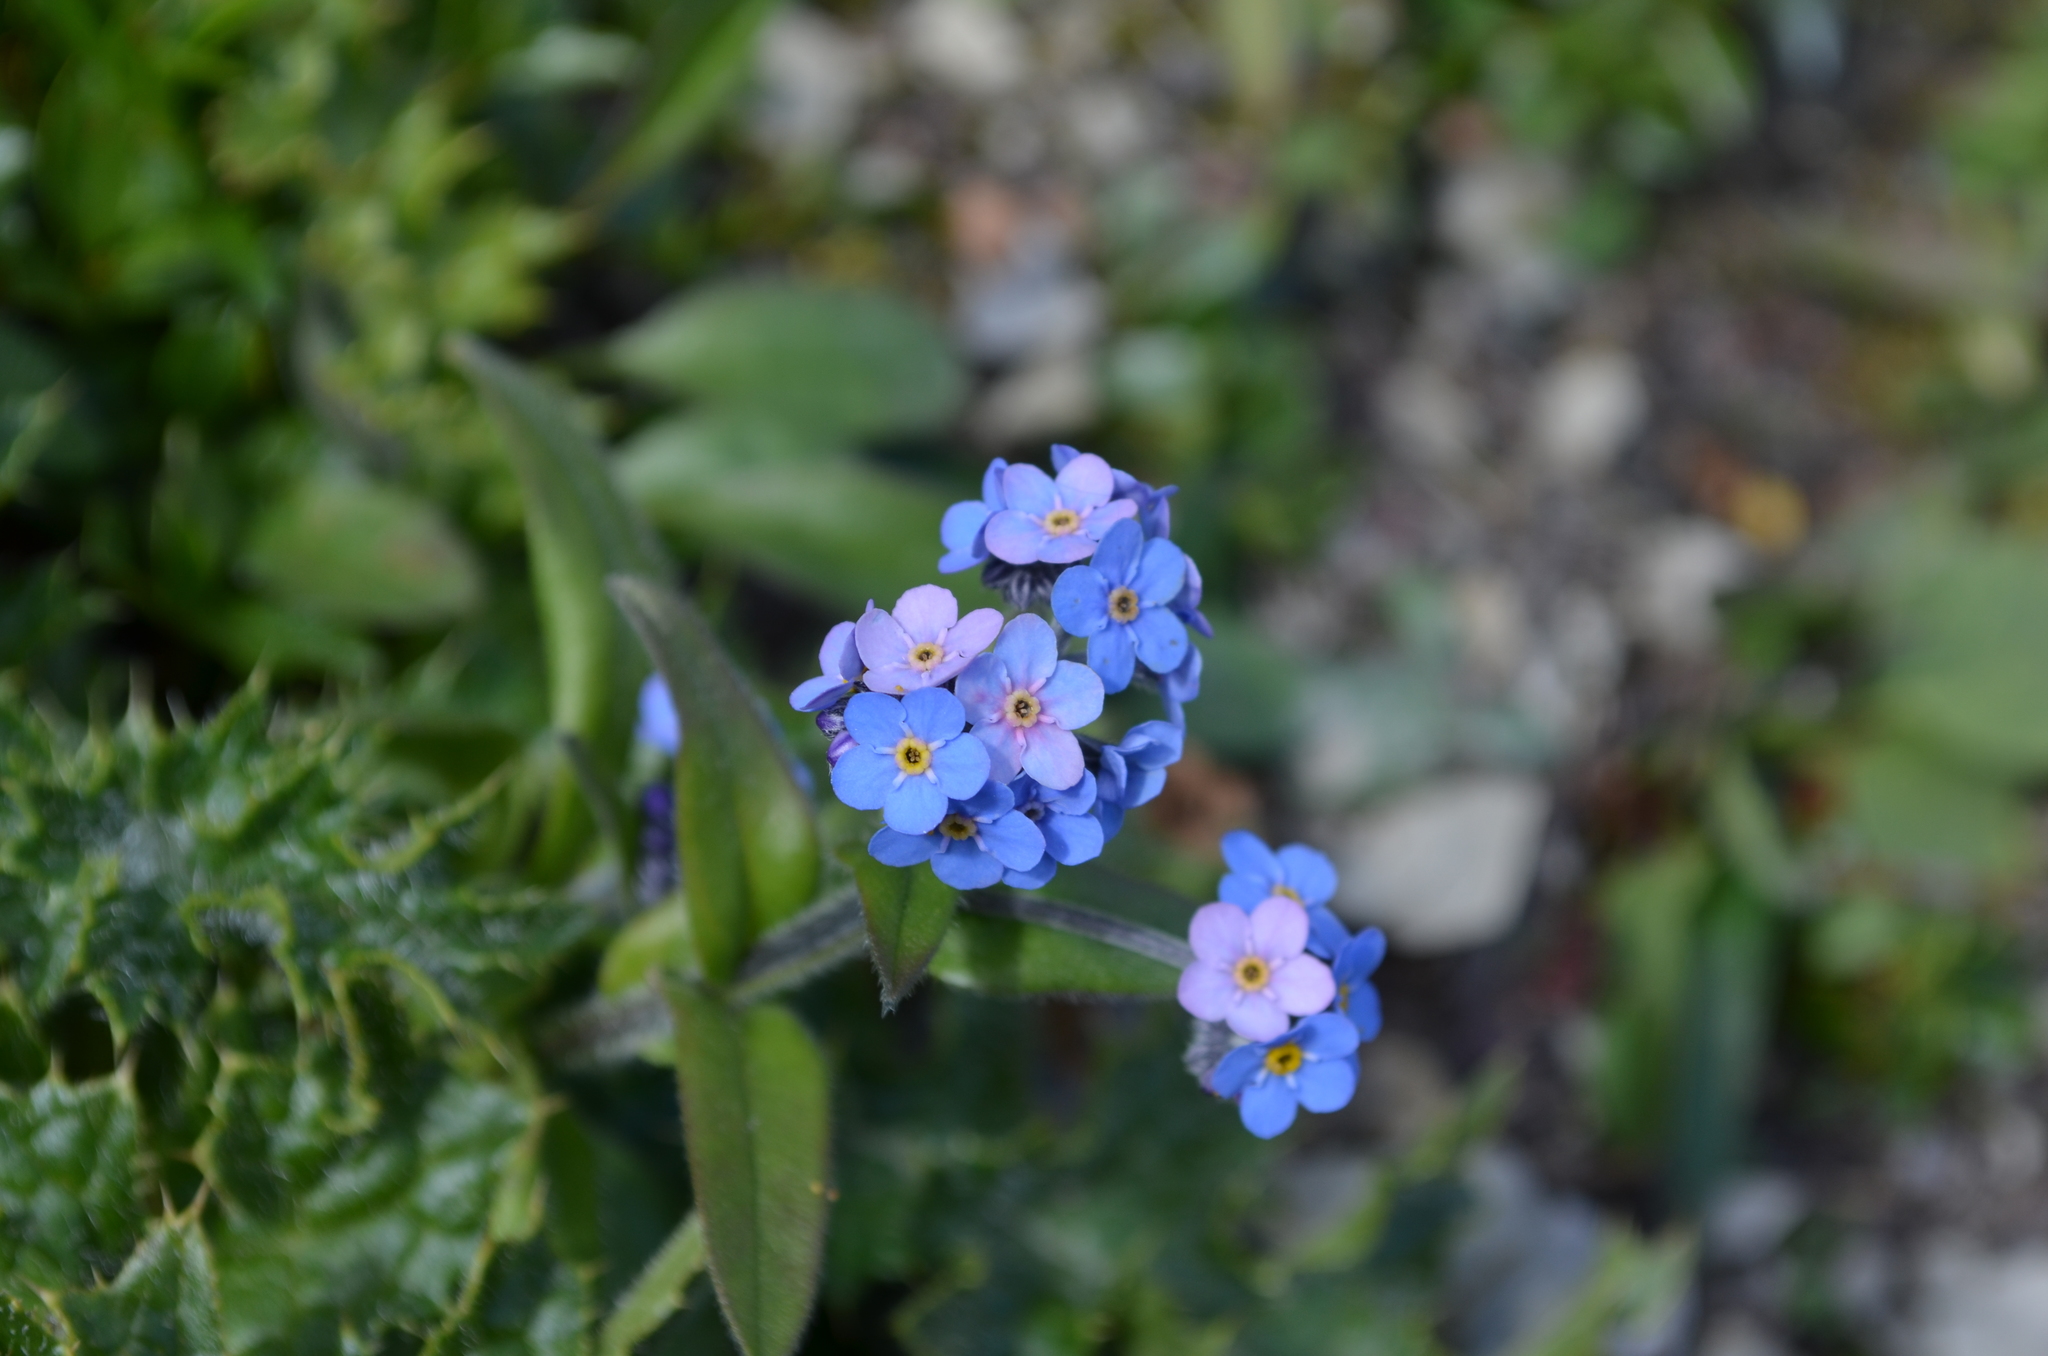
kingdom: Plantae
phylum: Tracheophyta
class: Magnoliopsida
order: Boraginales
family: Boraginaceae
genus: Myosotis
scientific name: Myosotis alpestris
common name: Alpine forget-me-not
